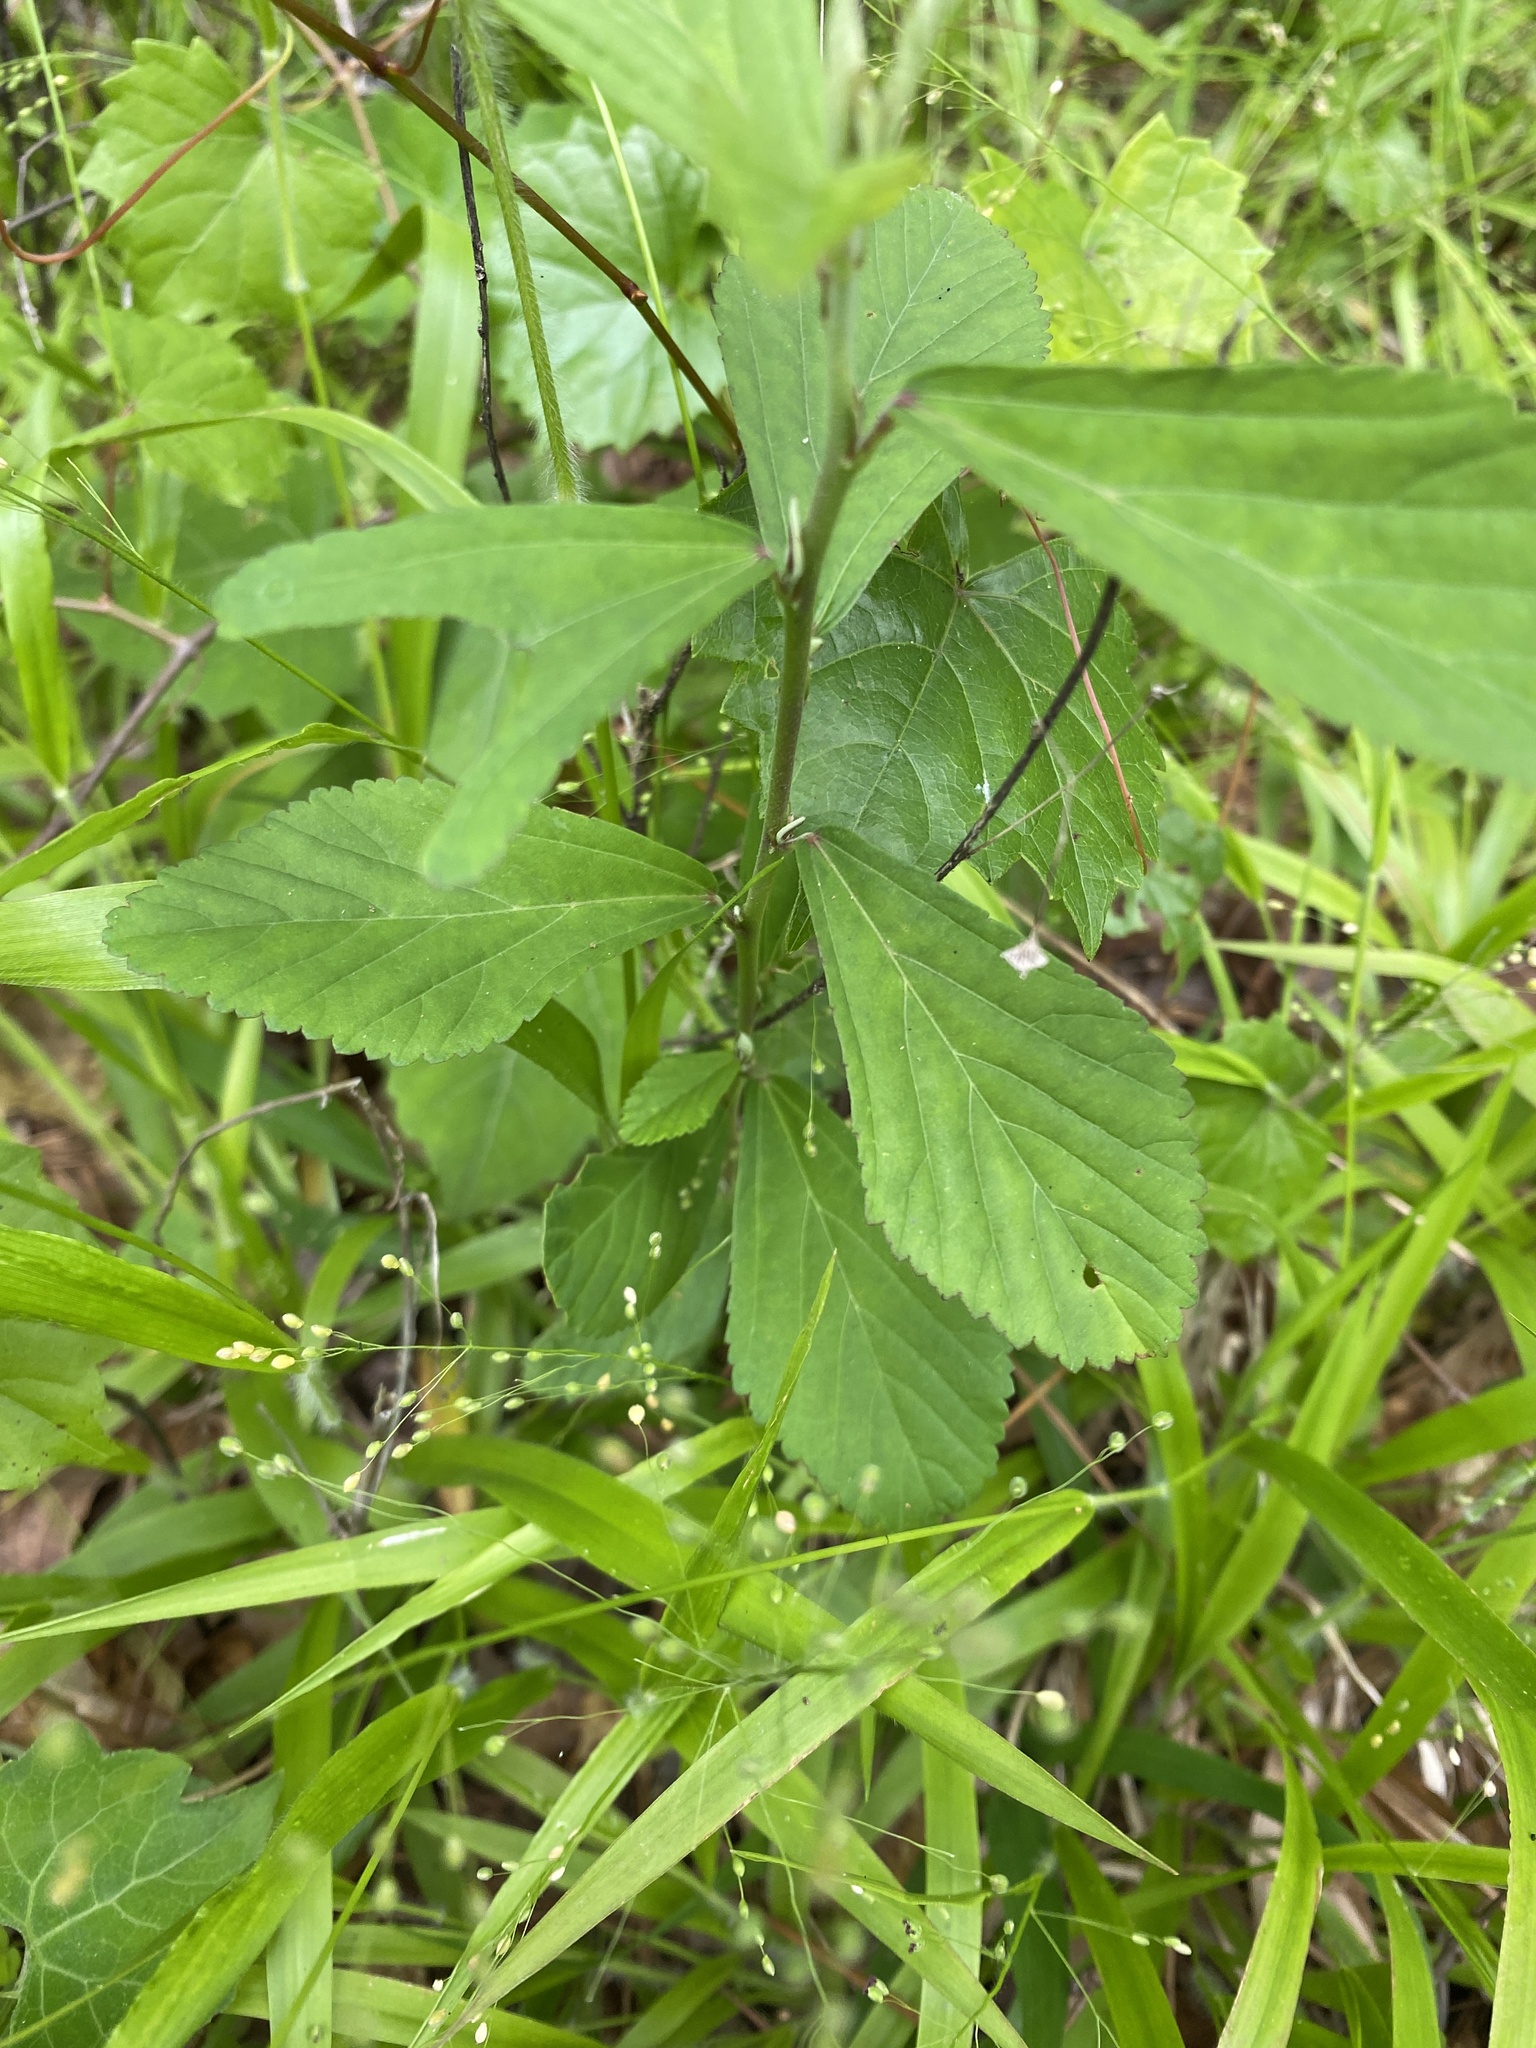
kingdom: Plantae
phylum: Tracheophyta
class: Magnoliopsida
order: Malvales
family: Malvaceae
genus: Sida
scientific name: Sida rhombifolia
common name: Queensland-hemp
